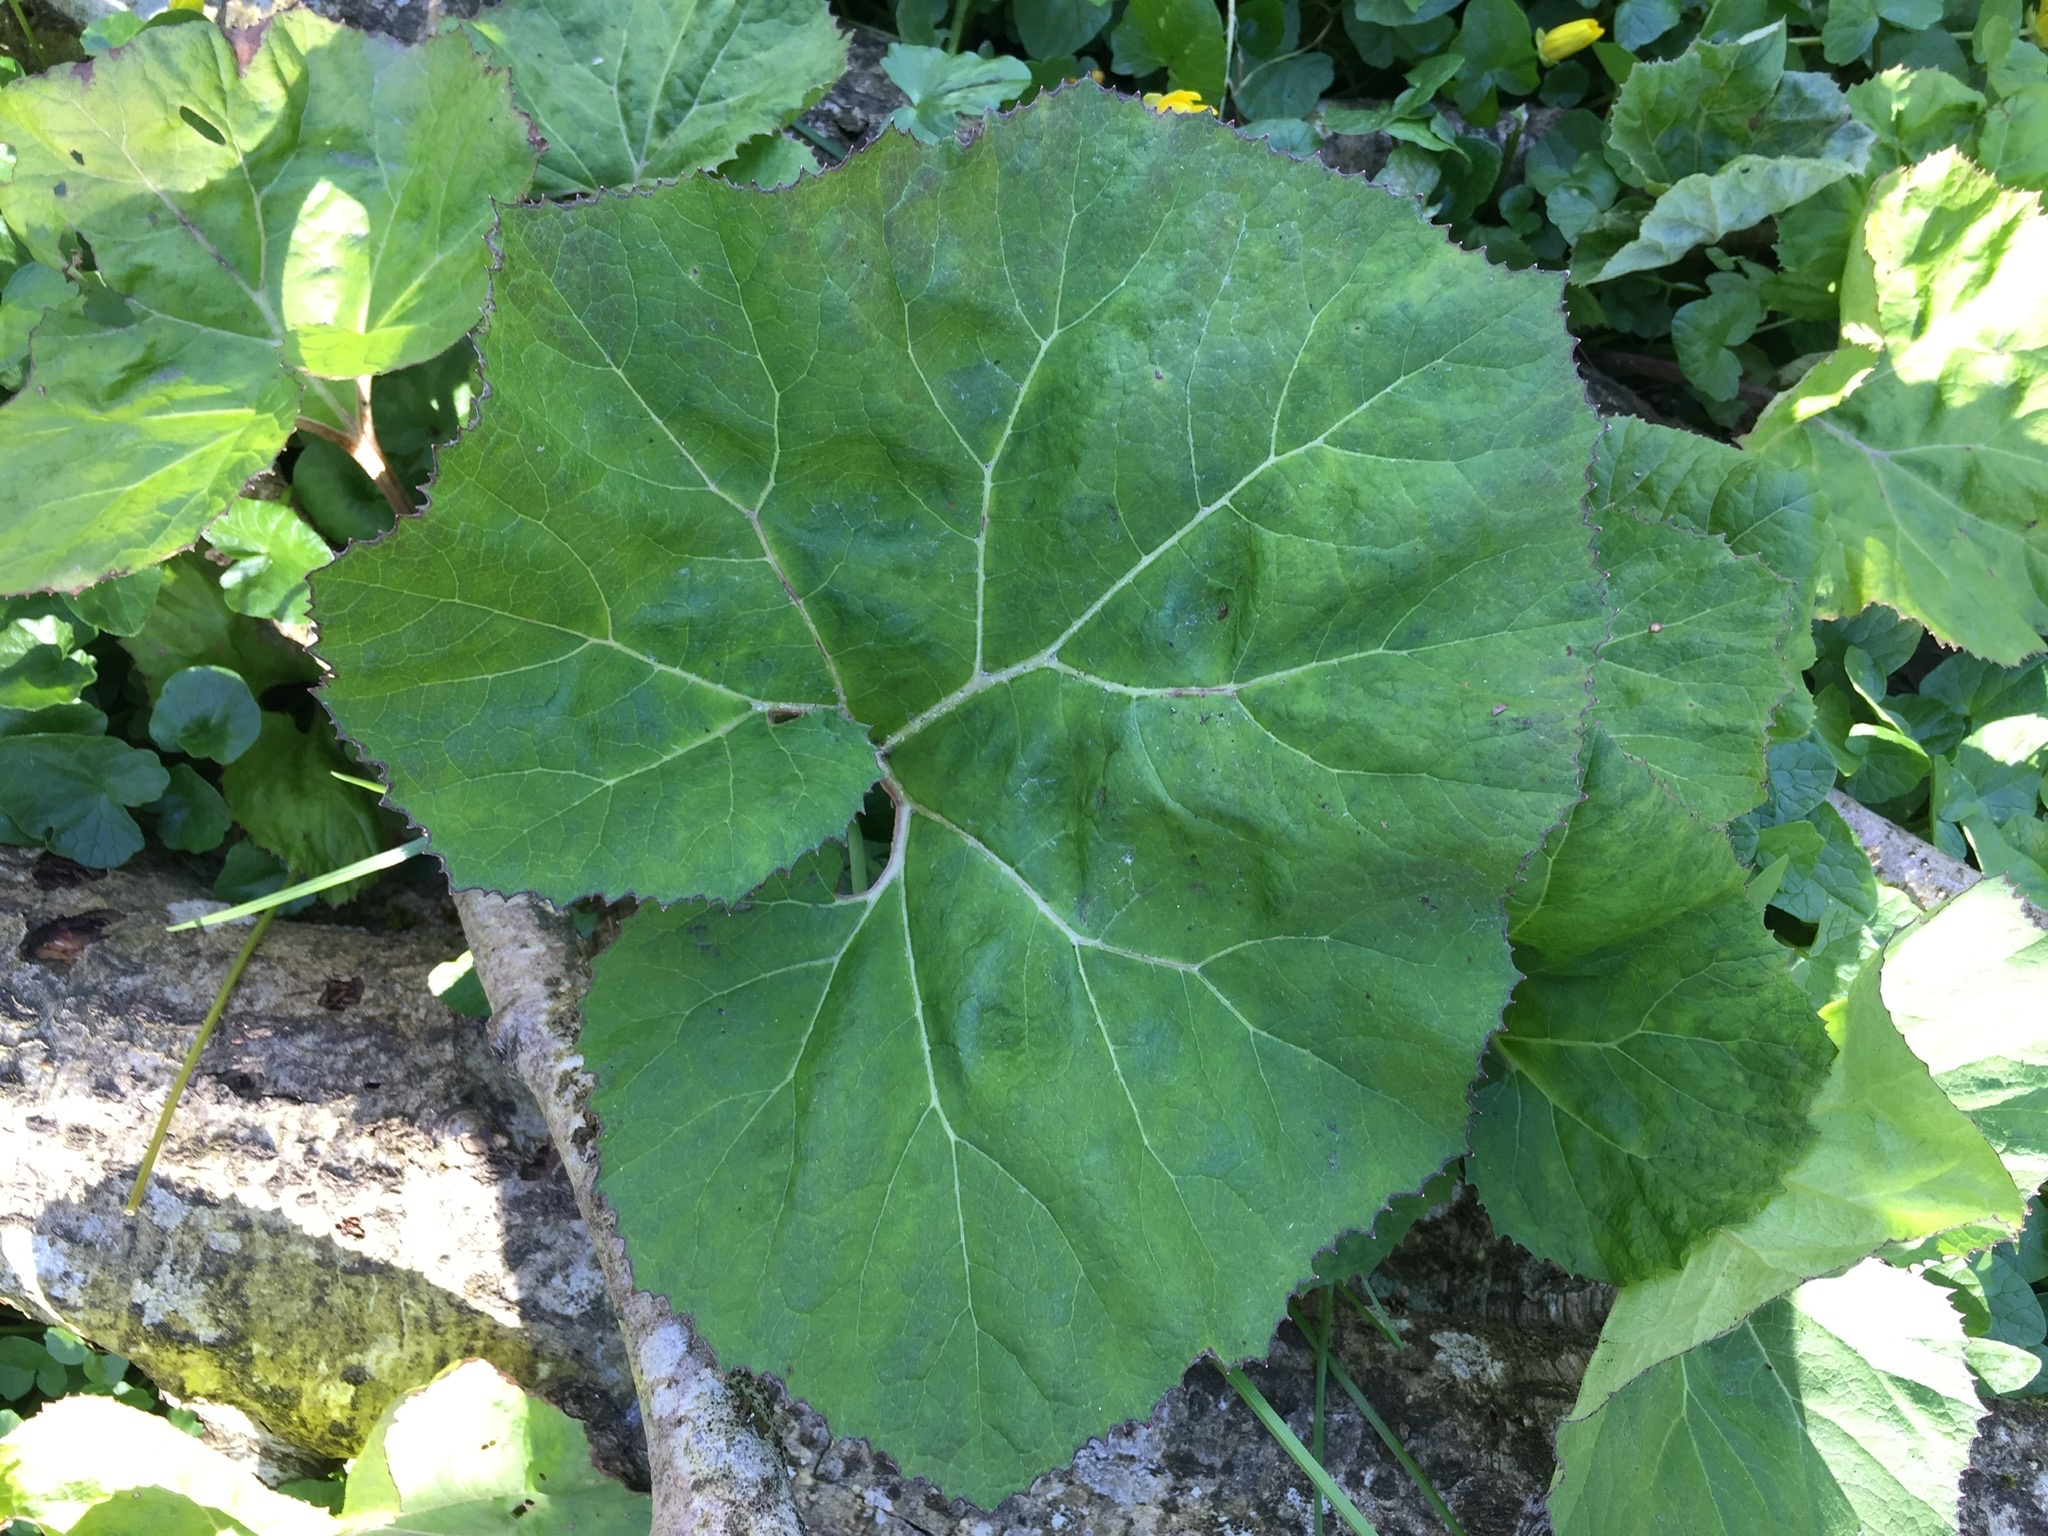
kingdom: Plantae
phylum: Tracheophyta
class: Magnoliopsida
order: Asterales
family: Asteraceae
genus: Petasites
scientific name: Petasites hybridus
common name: Butterbur
